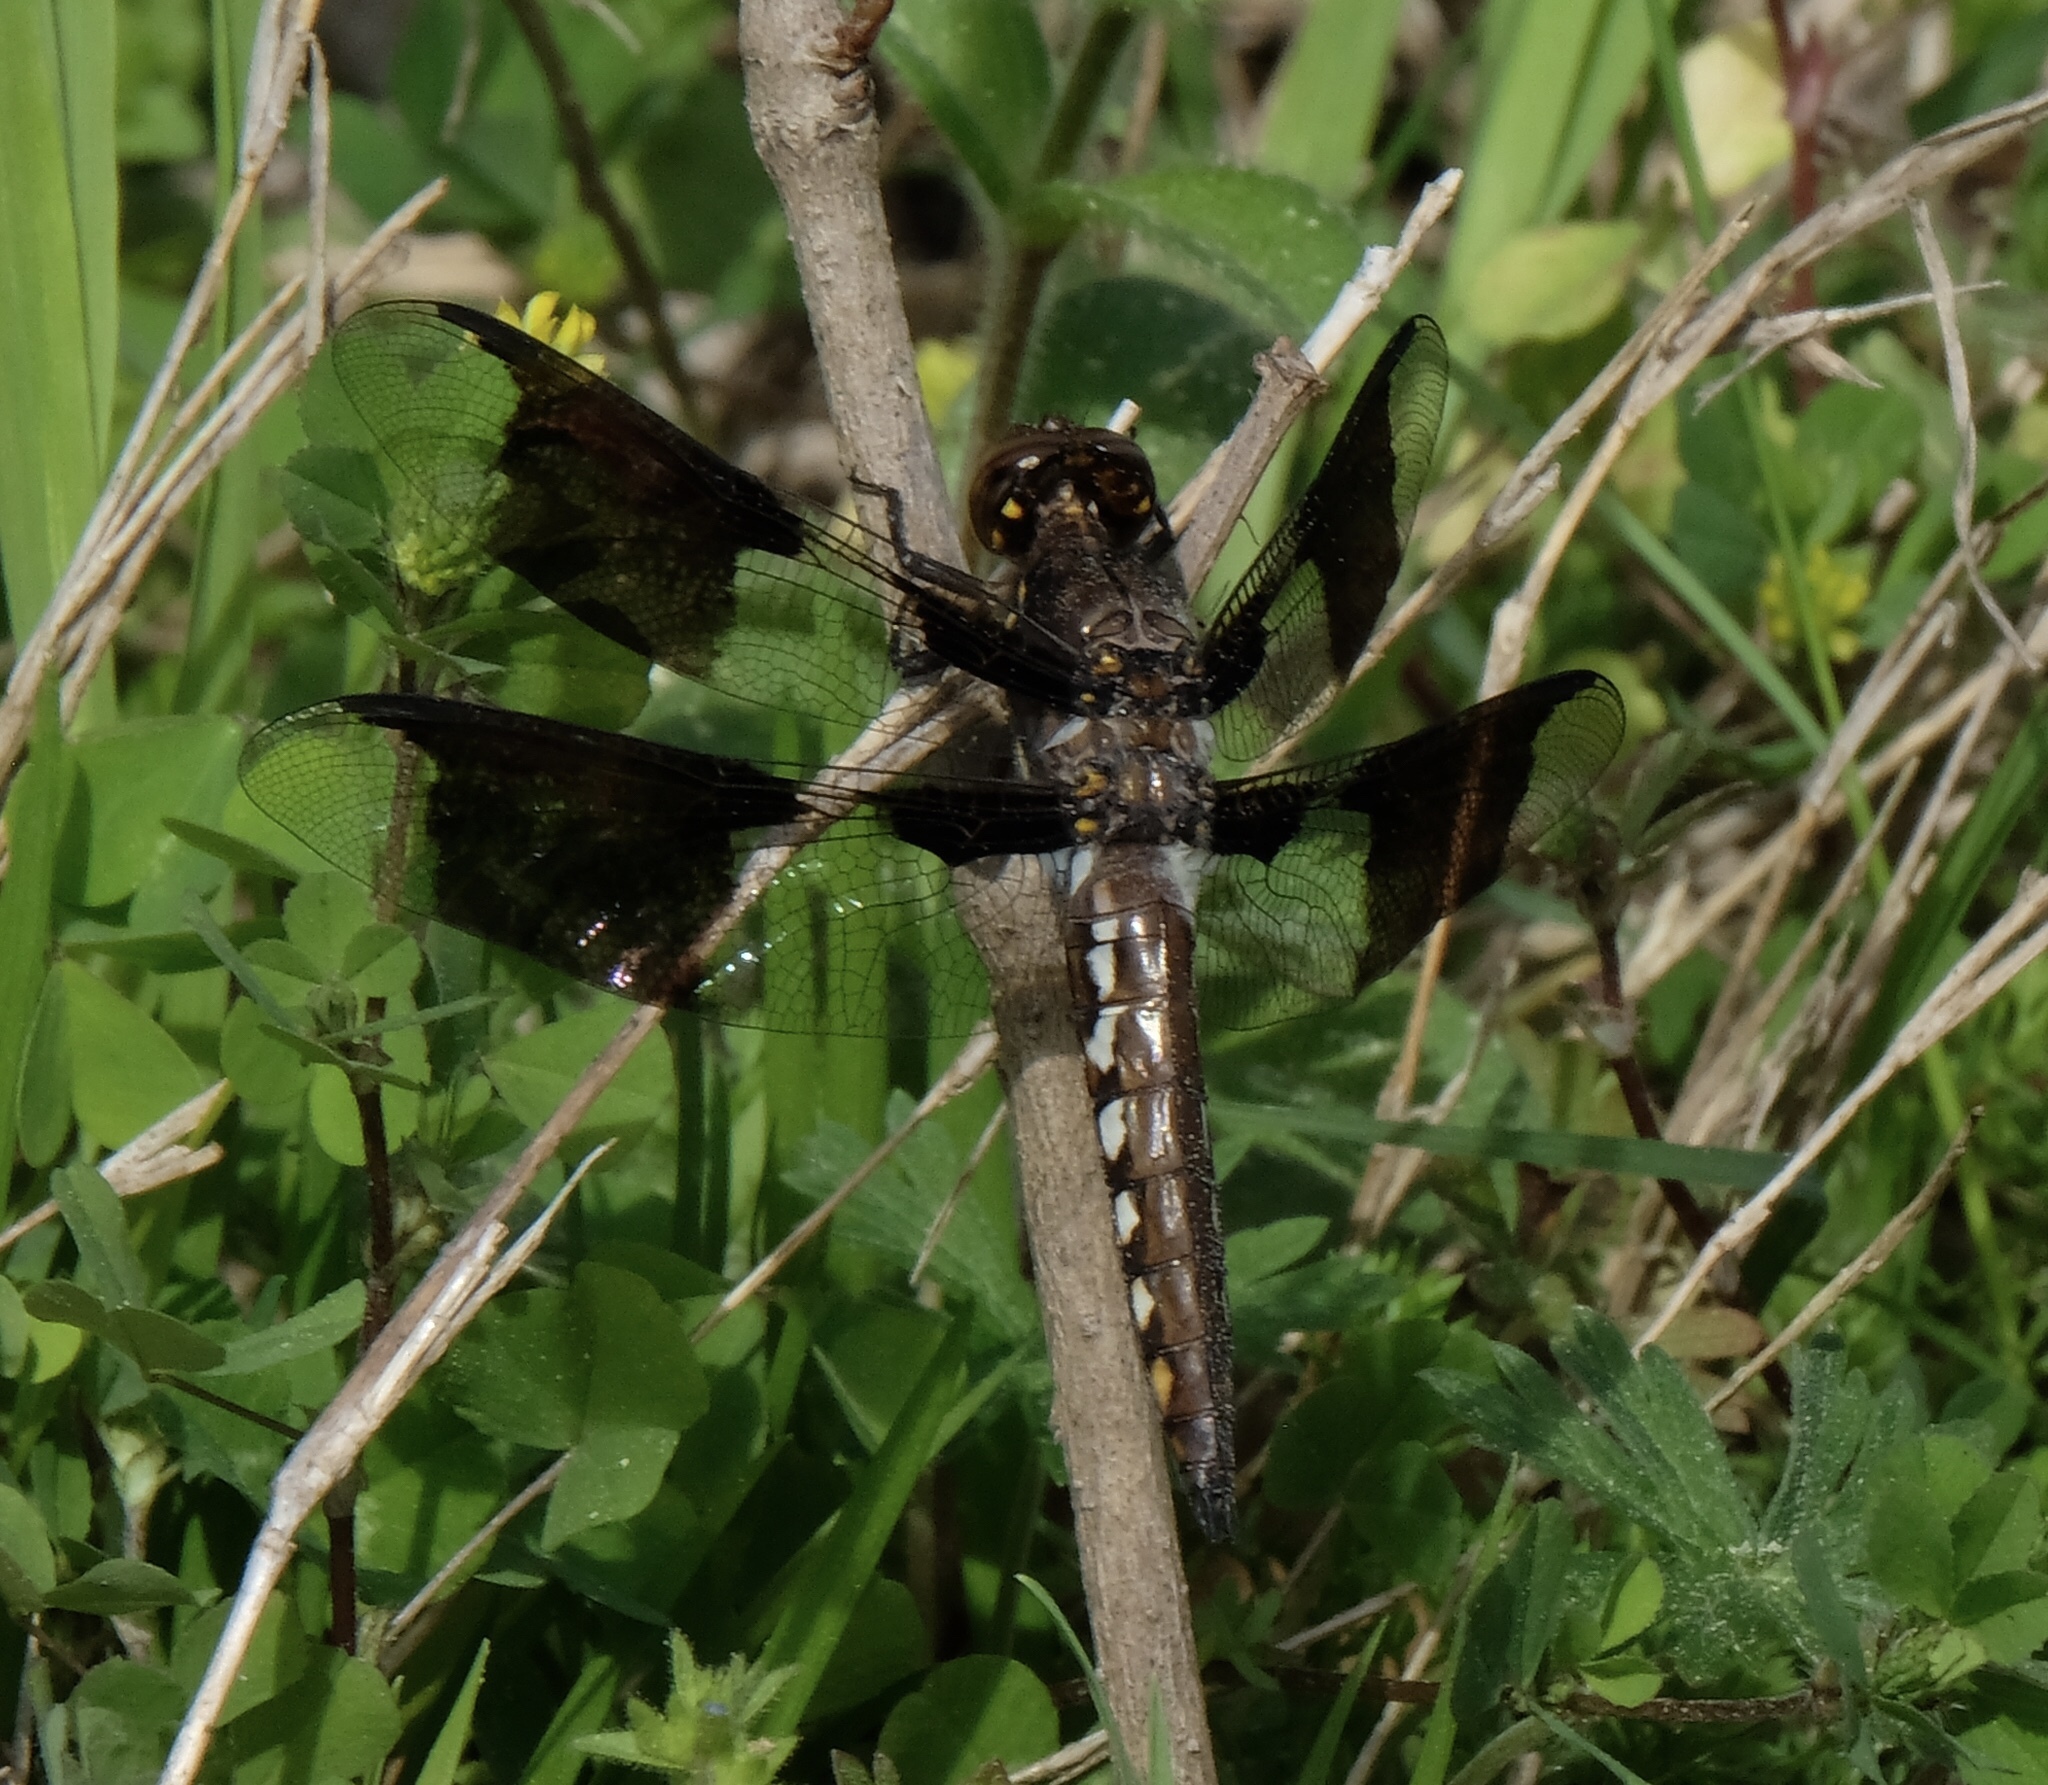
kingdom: Animalia
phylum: Arthropoda
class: Insecta
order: Odonata
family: Libellulidae
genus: Plathemis
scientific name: Plathemis lydia
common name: Common whitetail
